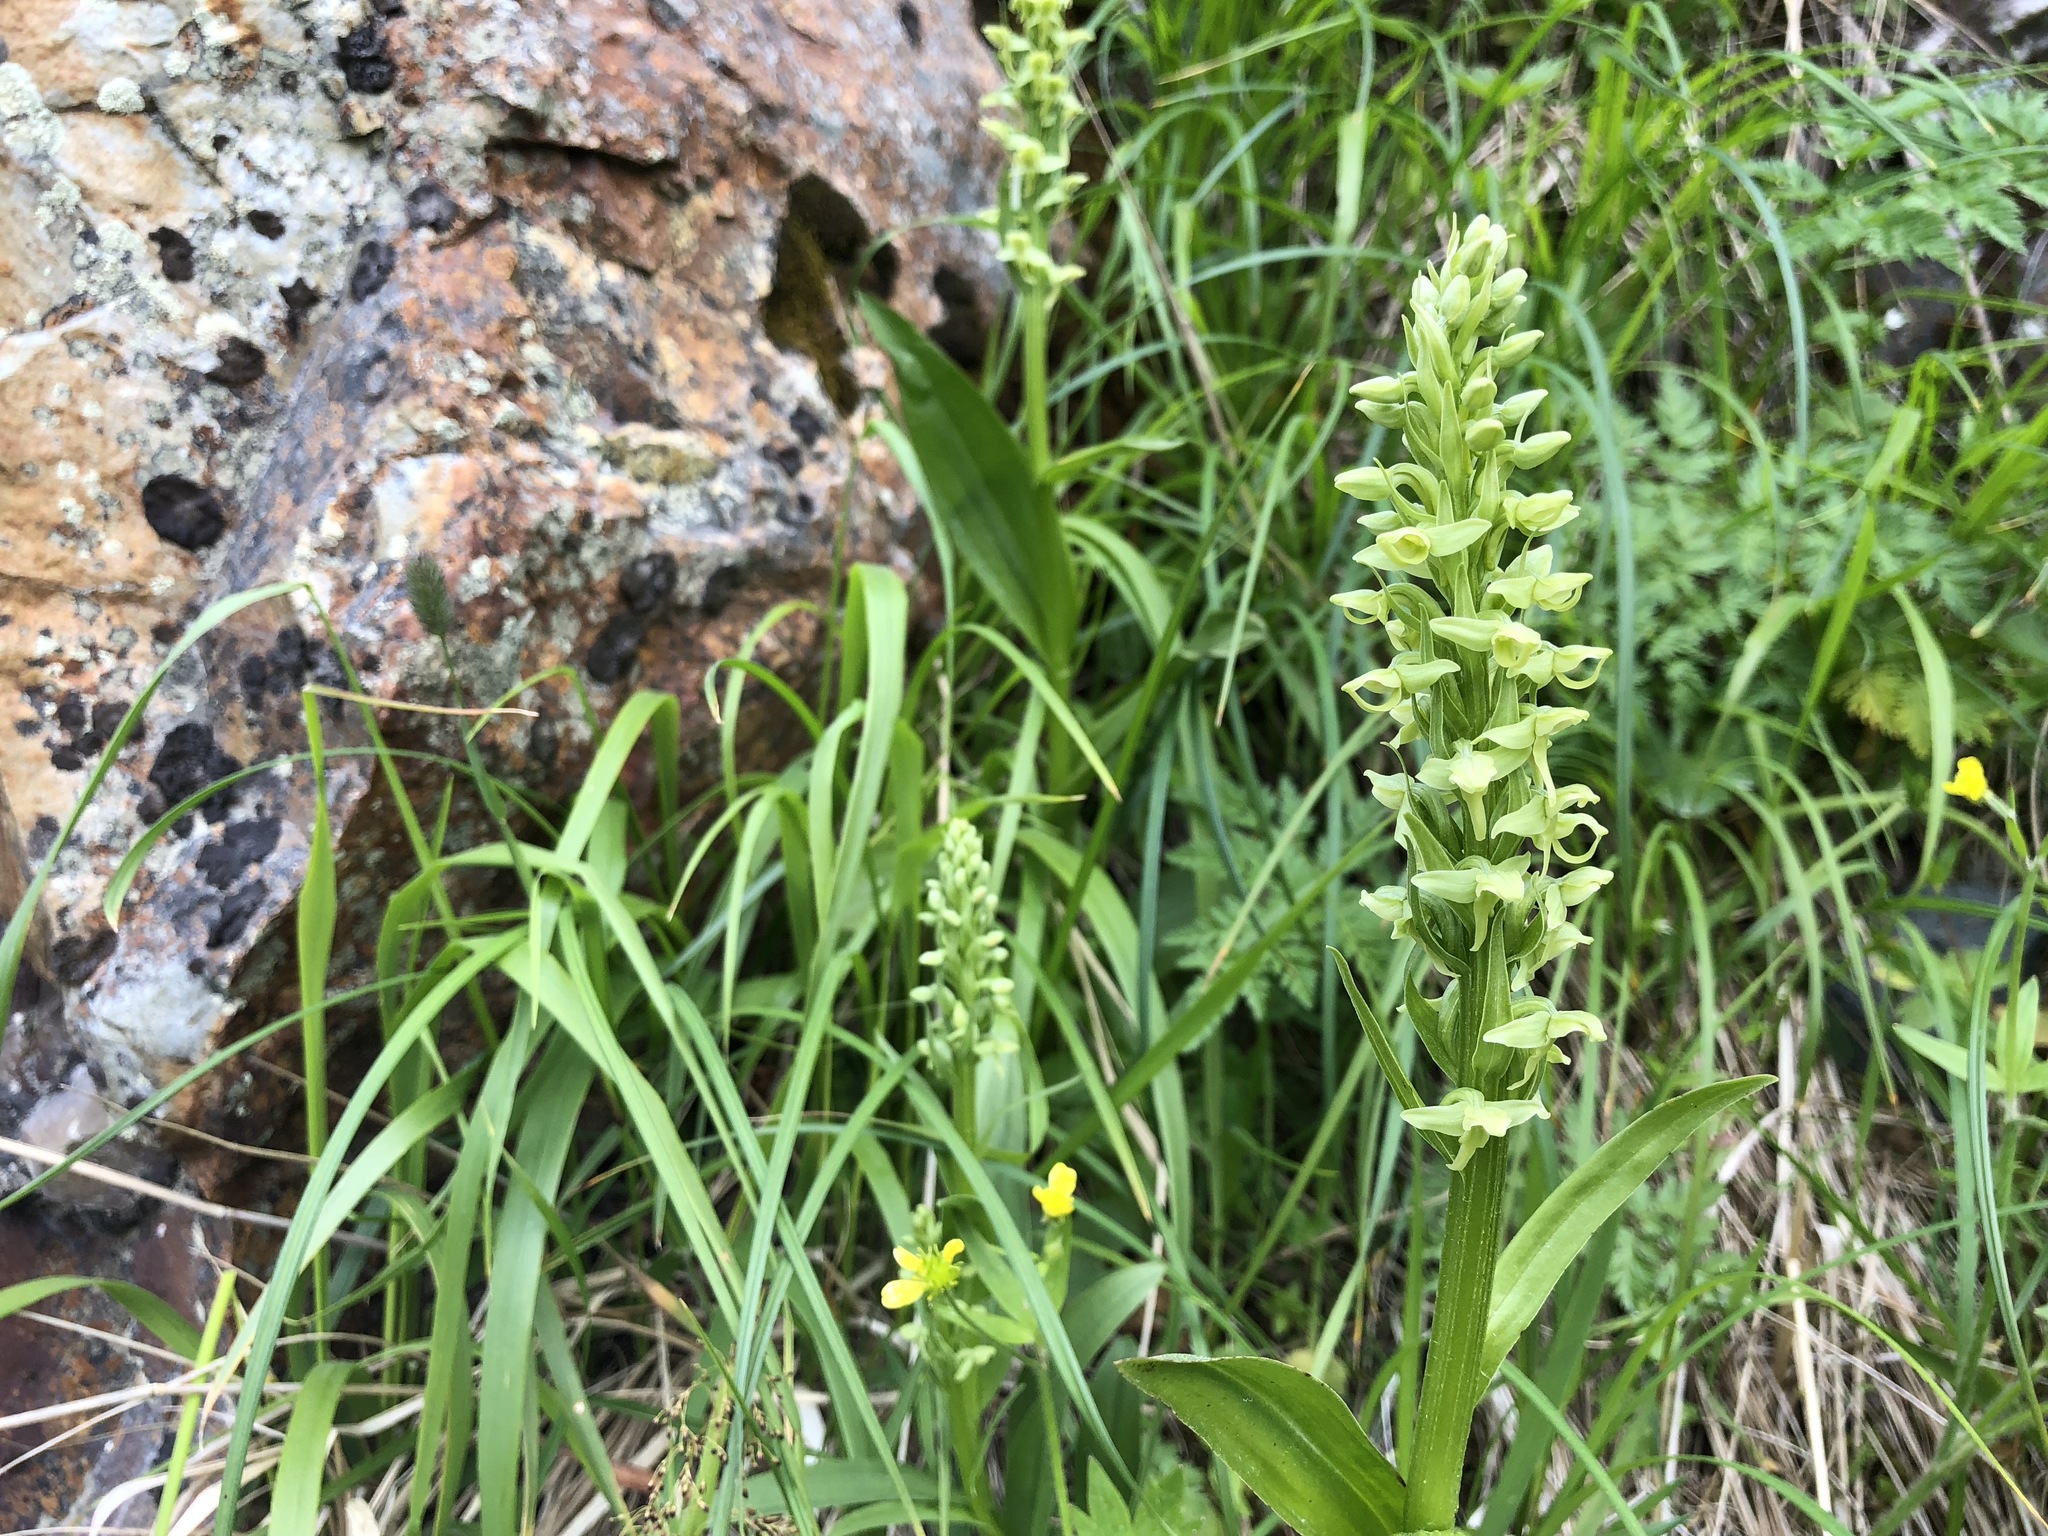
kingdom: Plantae
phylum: Tracheophyta
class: Liliopsida
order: Asparagales
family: Orchidaceae
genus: Platanthera
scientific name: Platanthera convallariifolia
